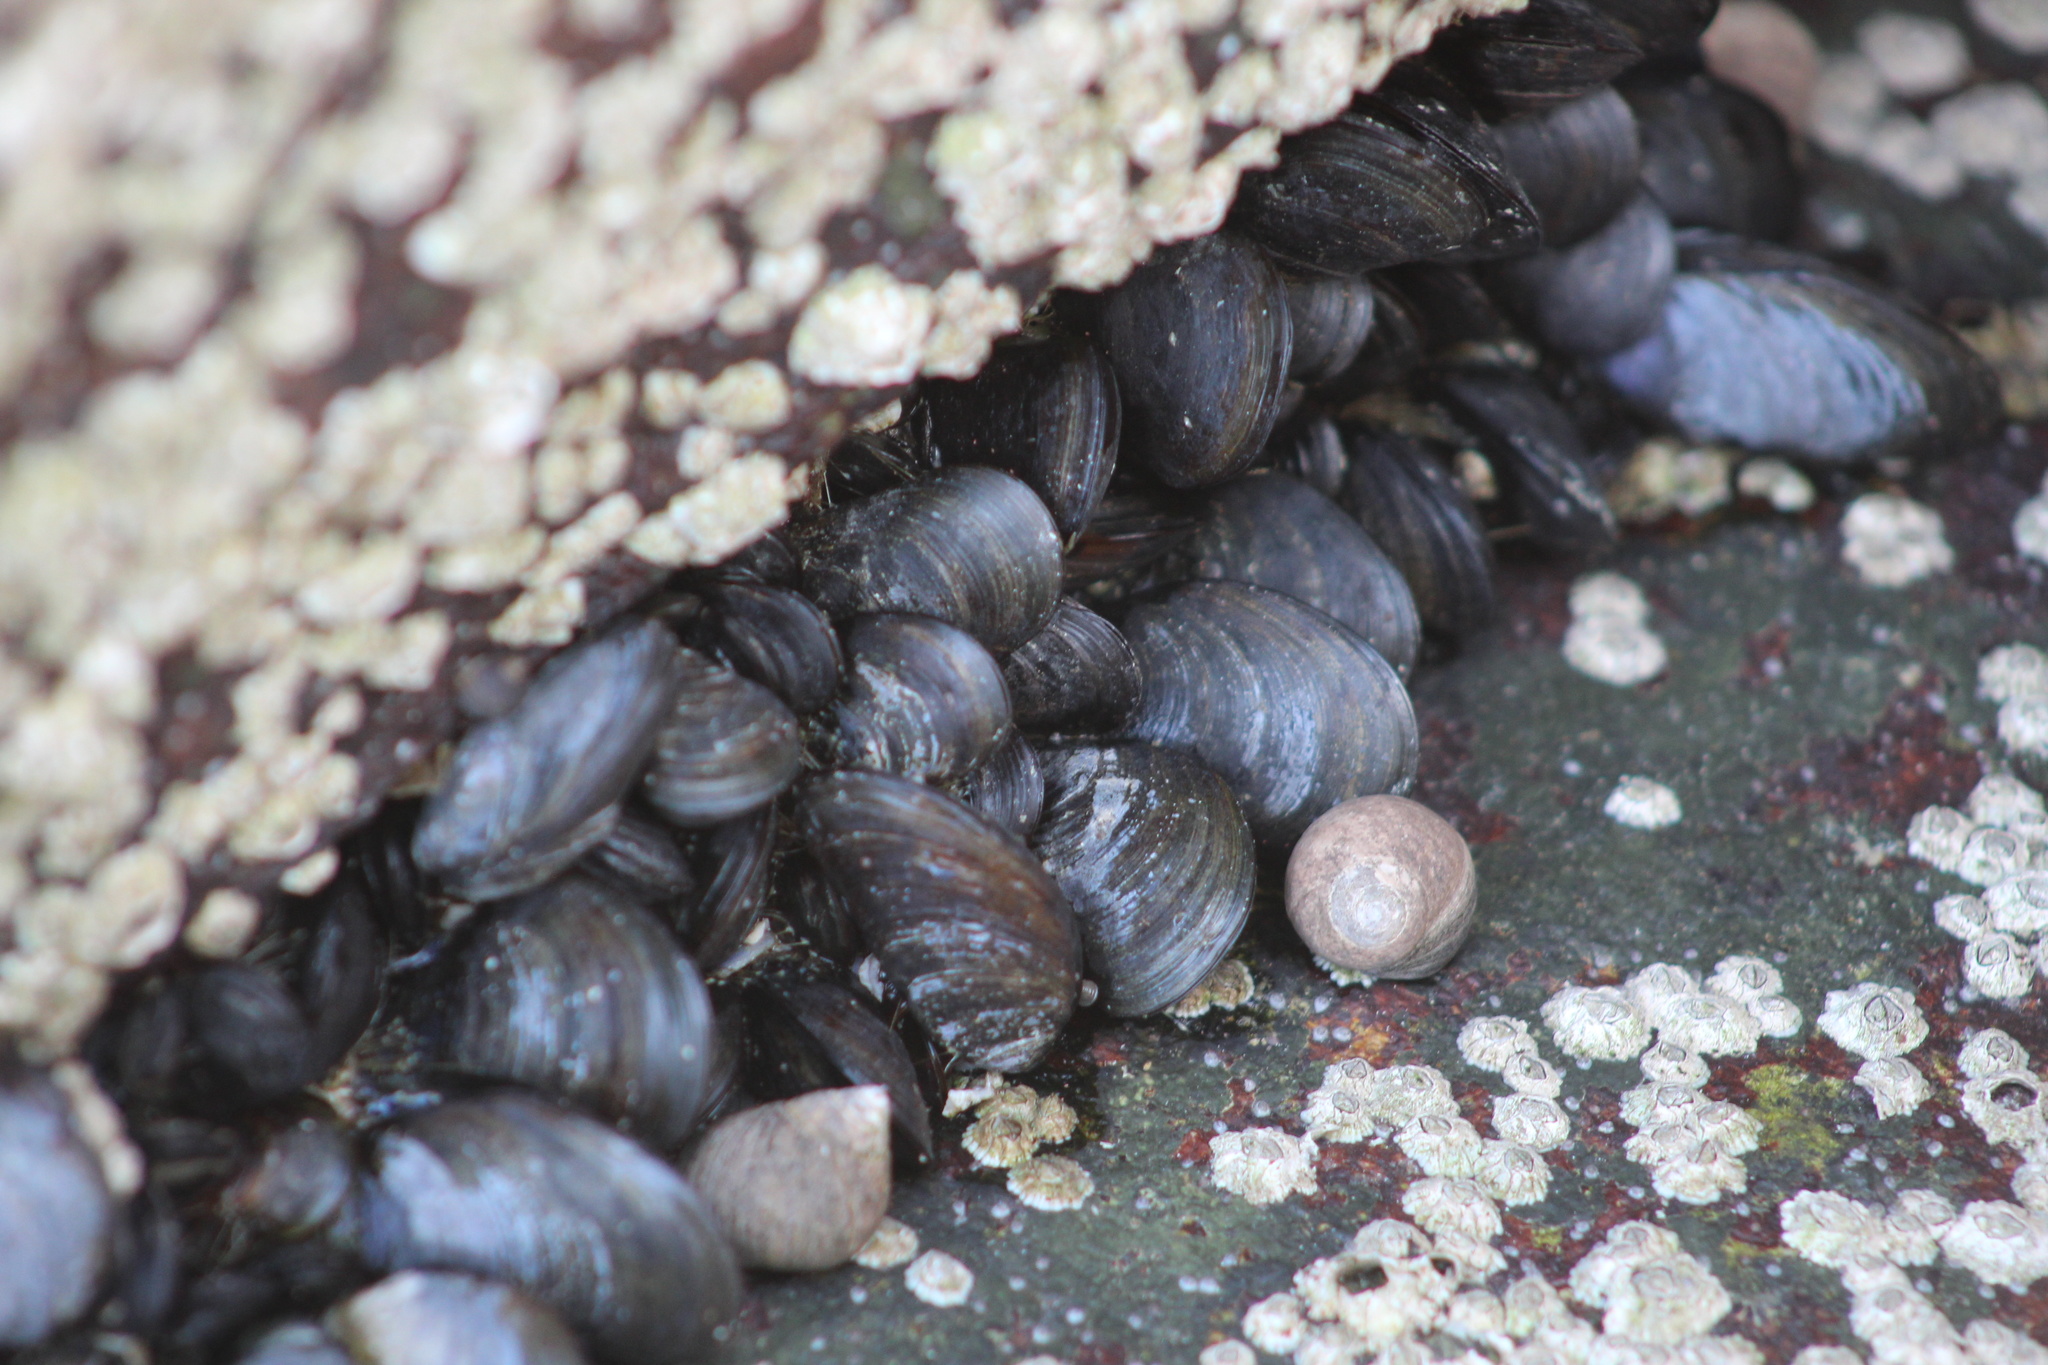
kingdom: Animalia
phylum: Mollusca
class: Bivalvia
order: Mytilida
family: Mytilidae
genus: Mytilus
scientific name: Mytilus edulis
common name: Blue mussel
